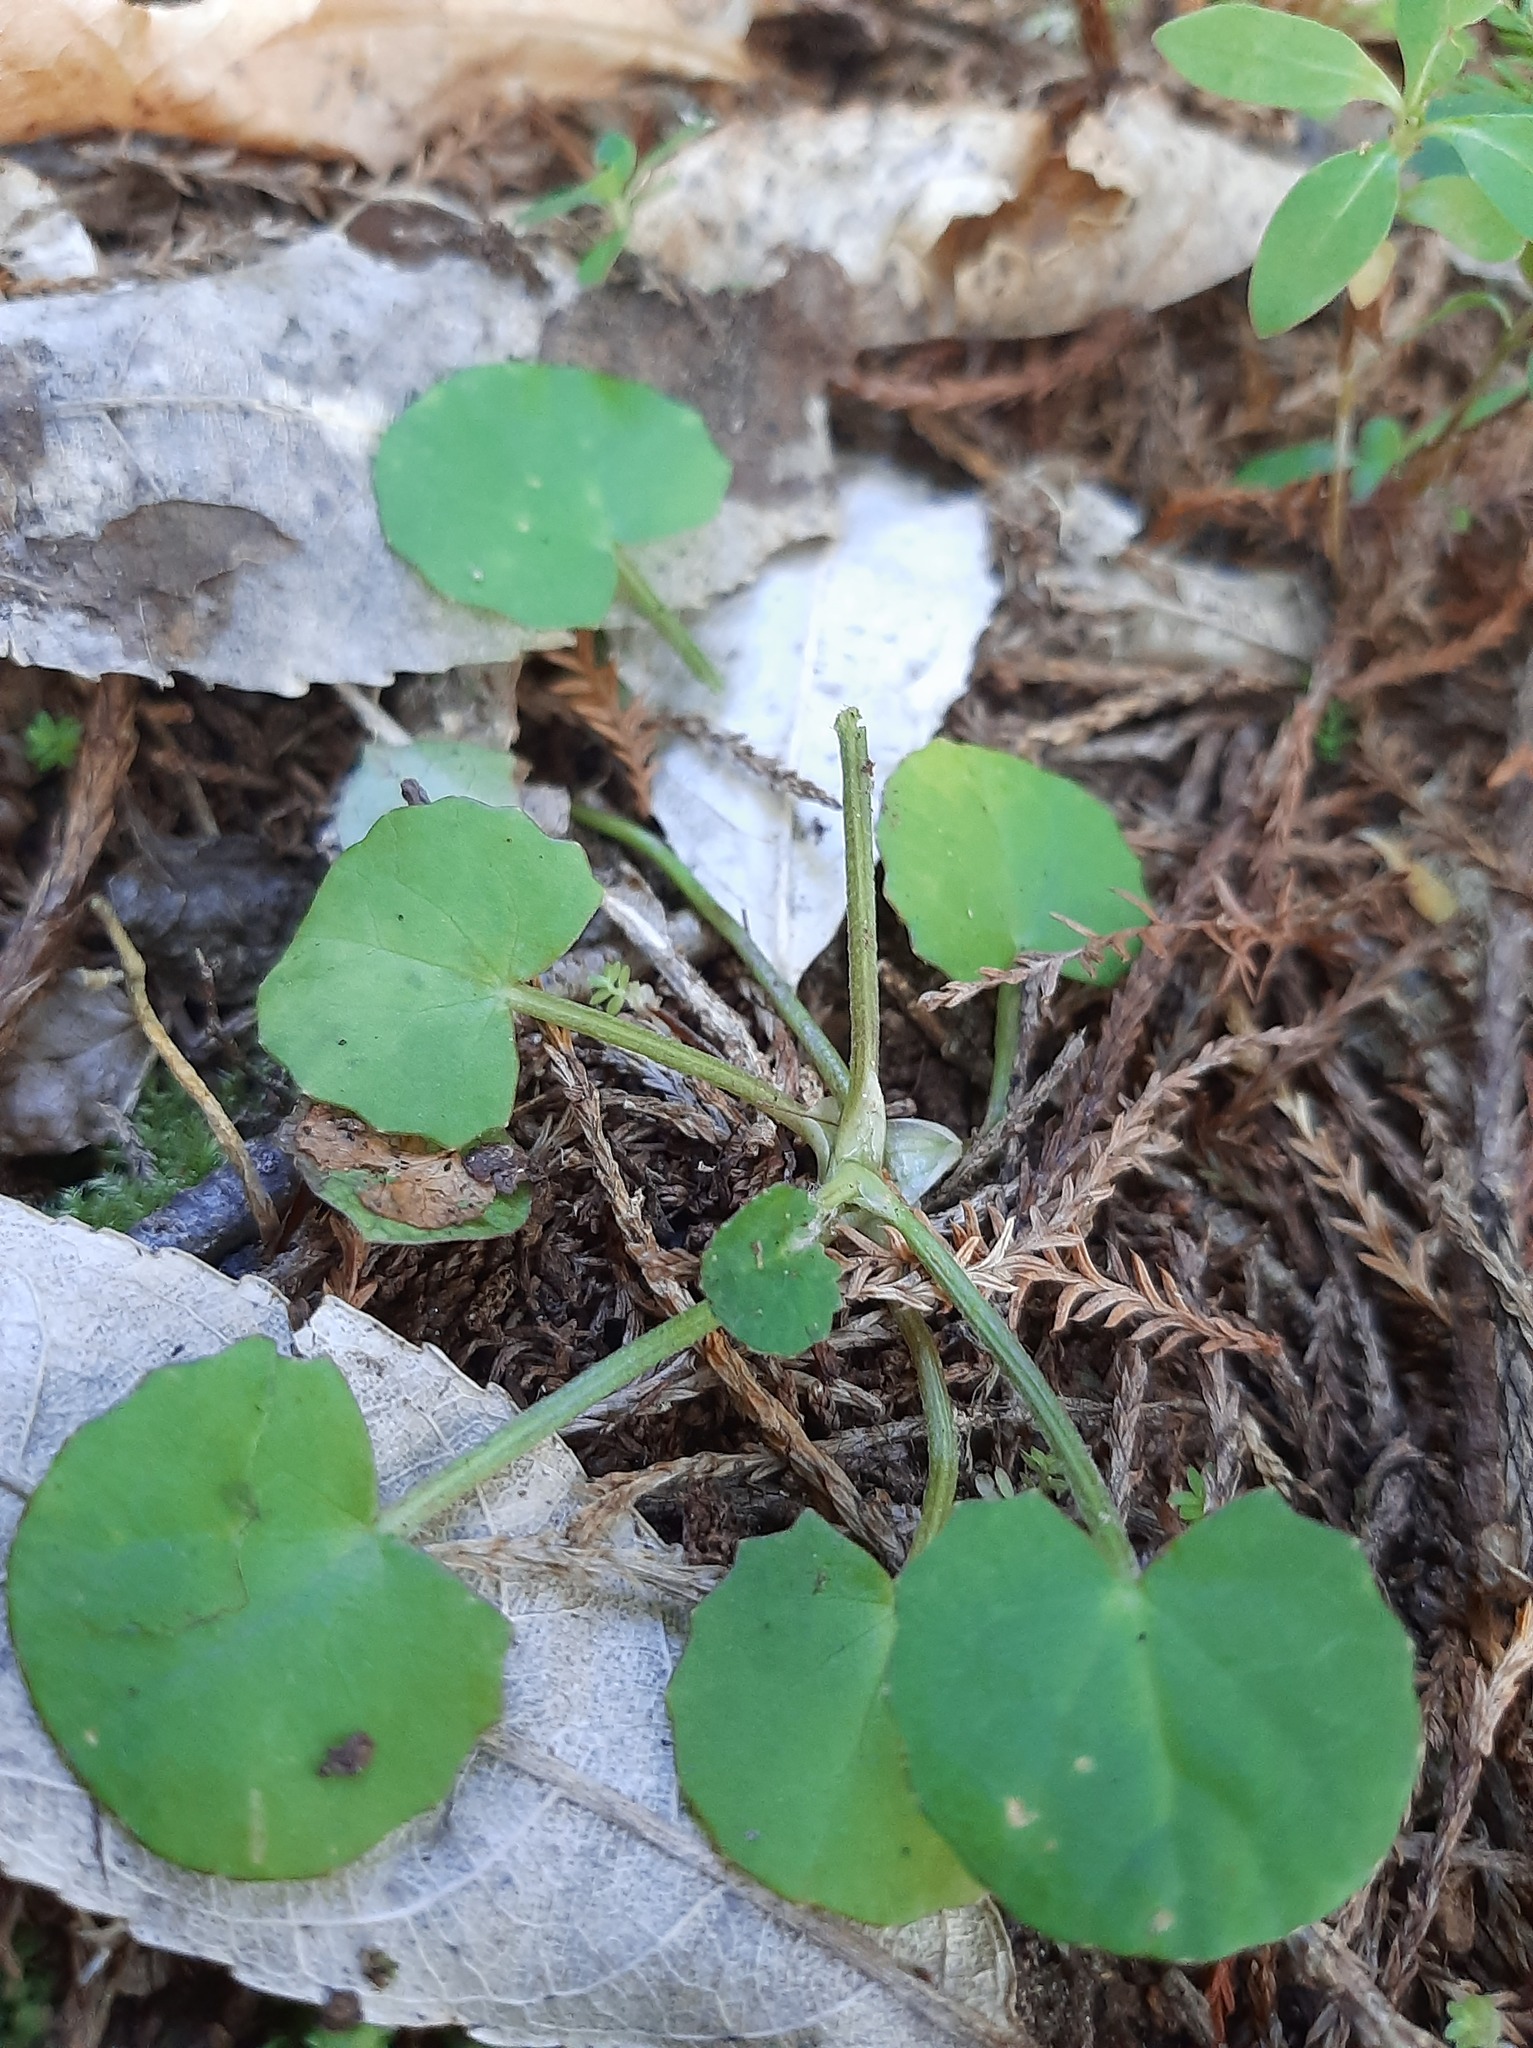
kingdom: Plantae
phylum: Tracheophyta
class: Magnoliopsida
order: Apiales
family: Apiaceae
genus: Centella
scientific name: Centella uniflora
